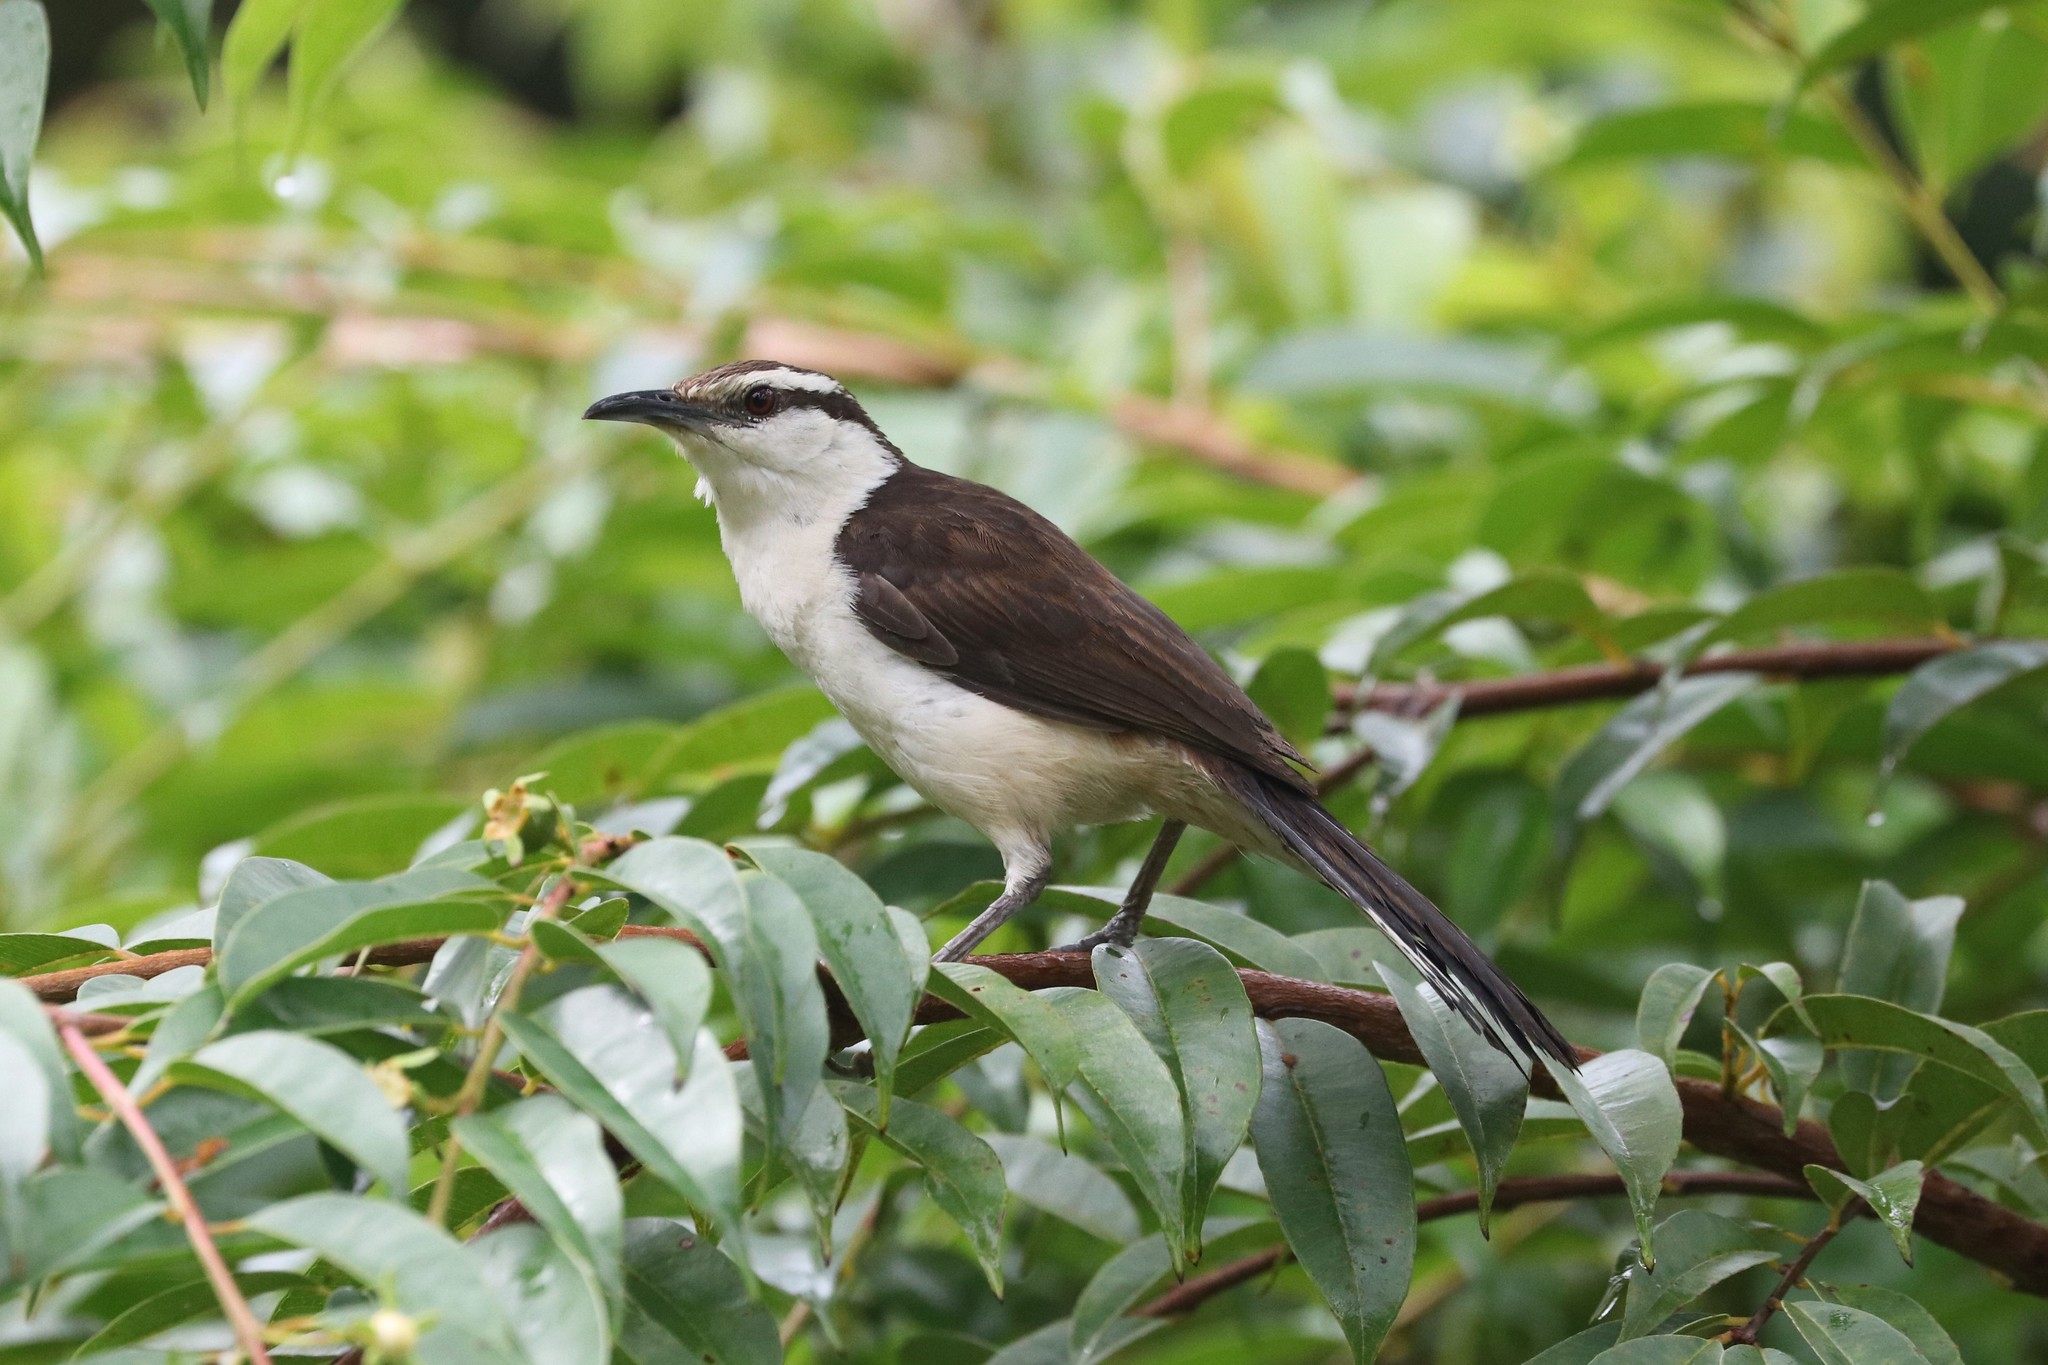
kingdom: Animalia
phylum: Chordata
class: Aves
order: Passeriformes
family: Troglodytidae
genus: Campylorhynchus
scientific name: Campylorhynchus griseus
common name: Bicolored wren
